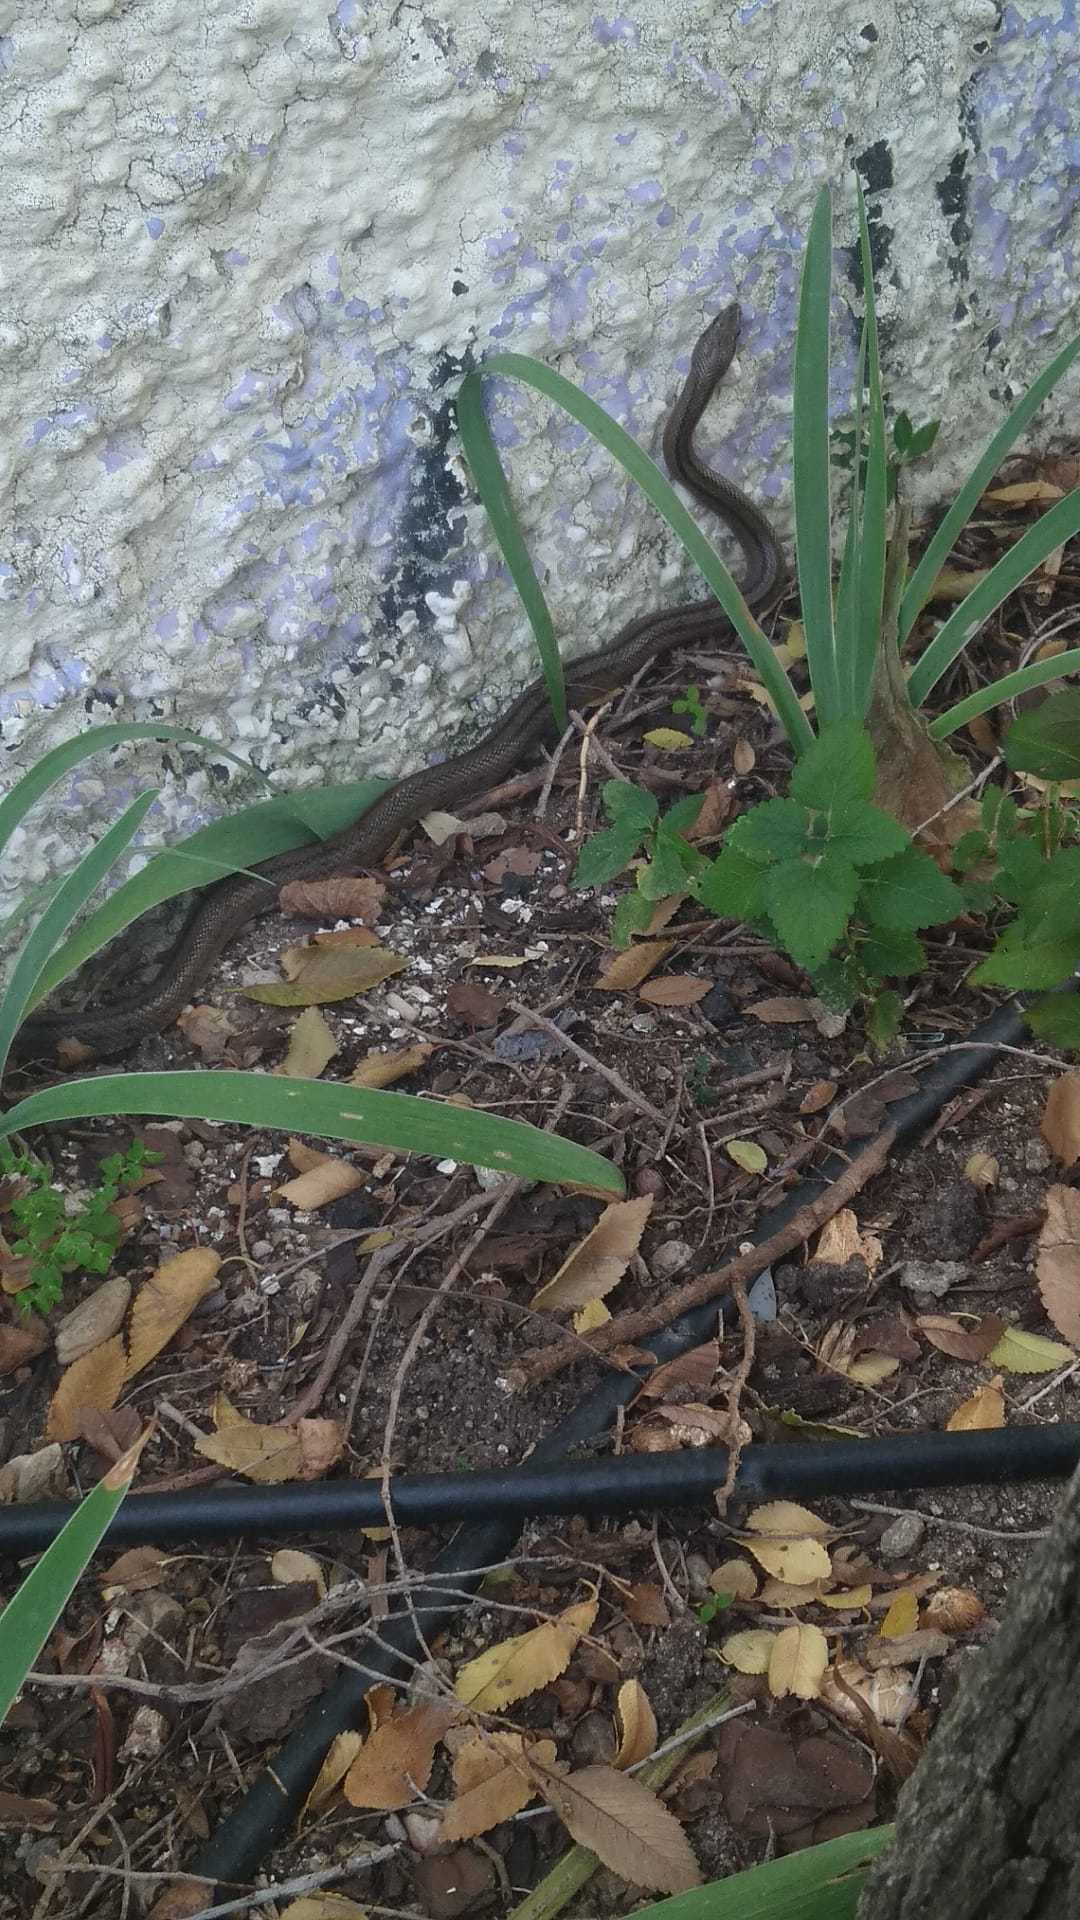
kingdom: Animalia
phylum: Chordata
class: Squamata
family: Colubridae
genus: Zamenis
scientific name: Zamenis scalaris
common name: Ladder snakes
